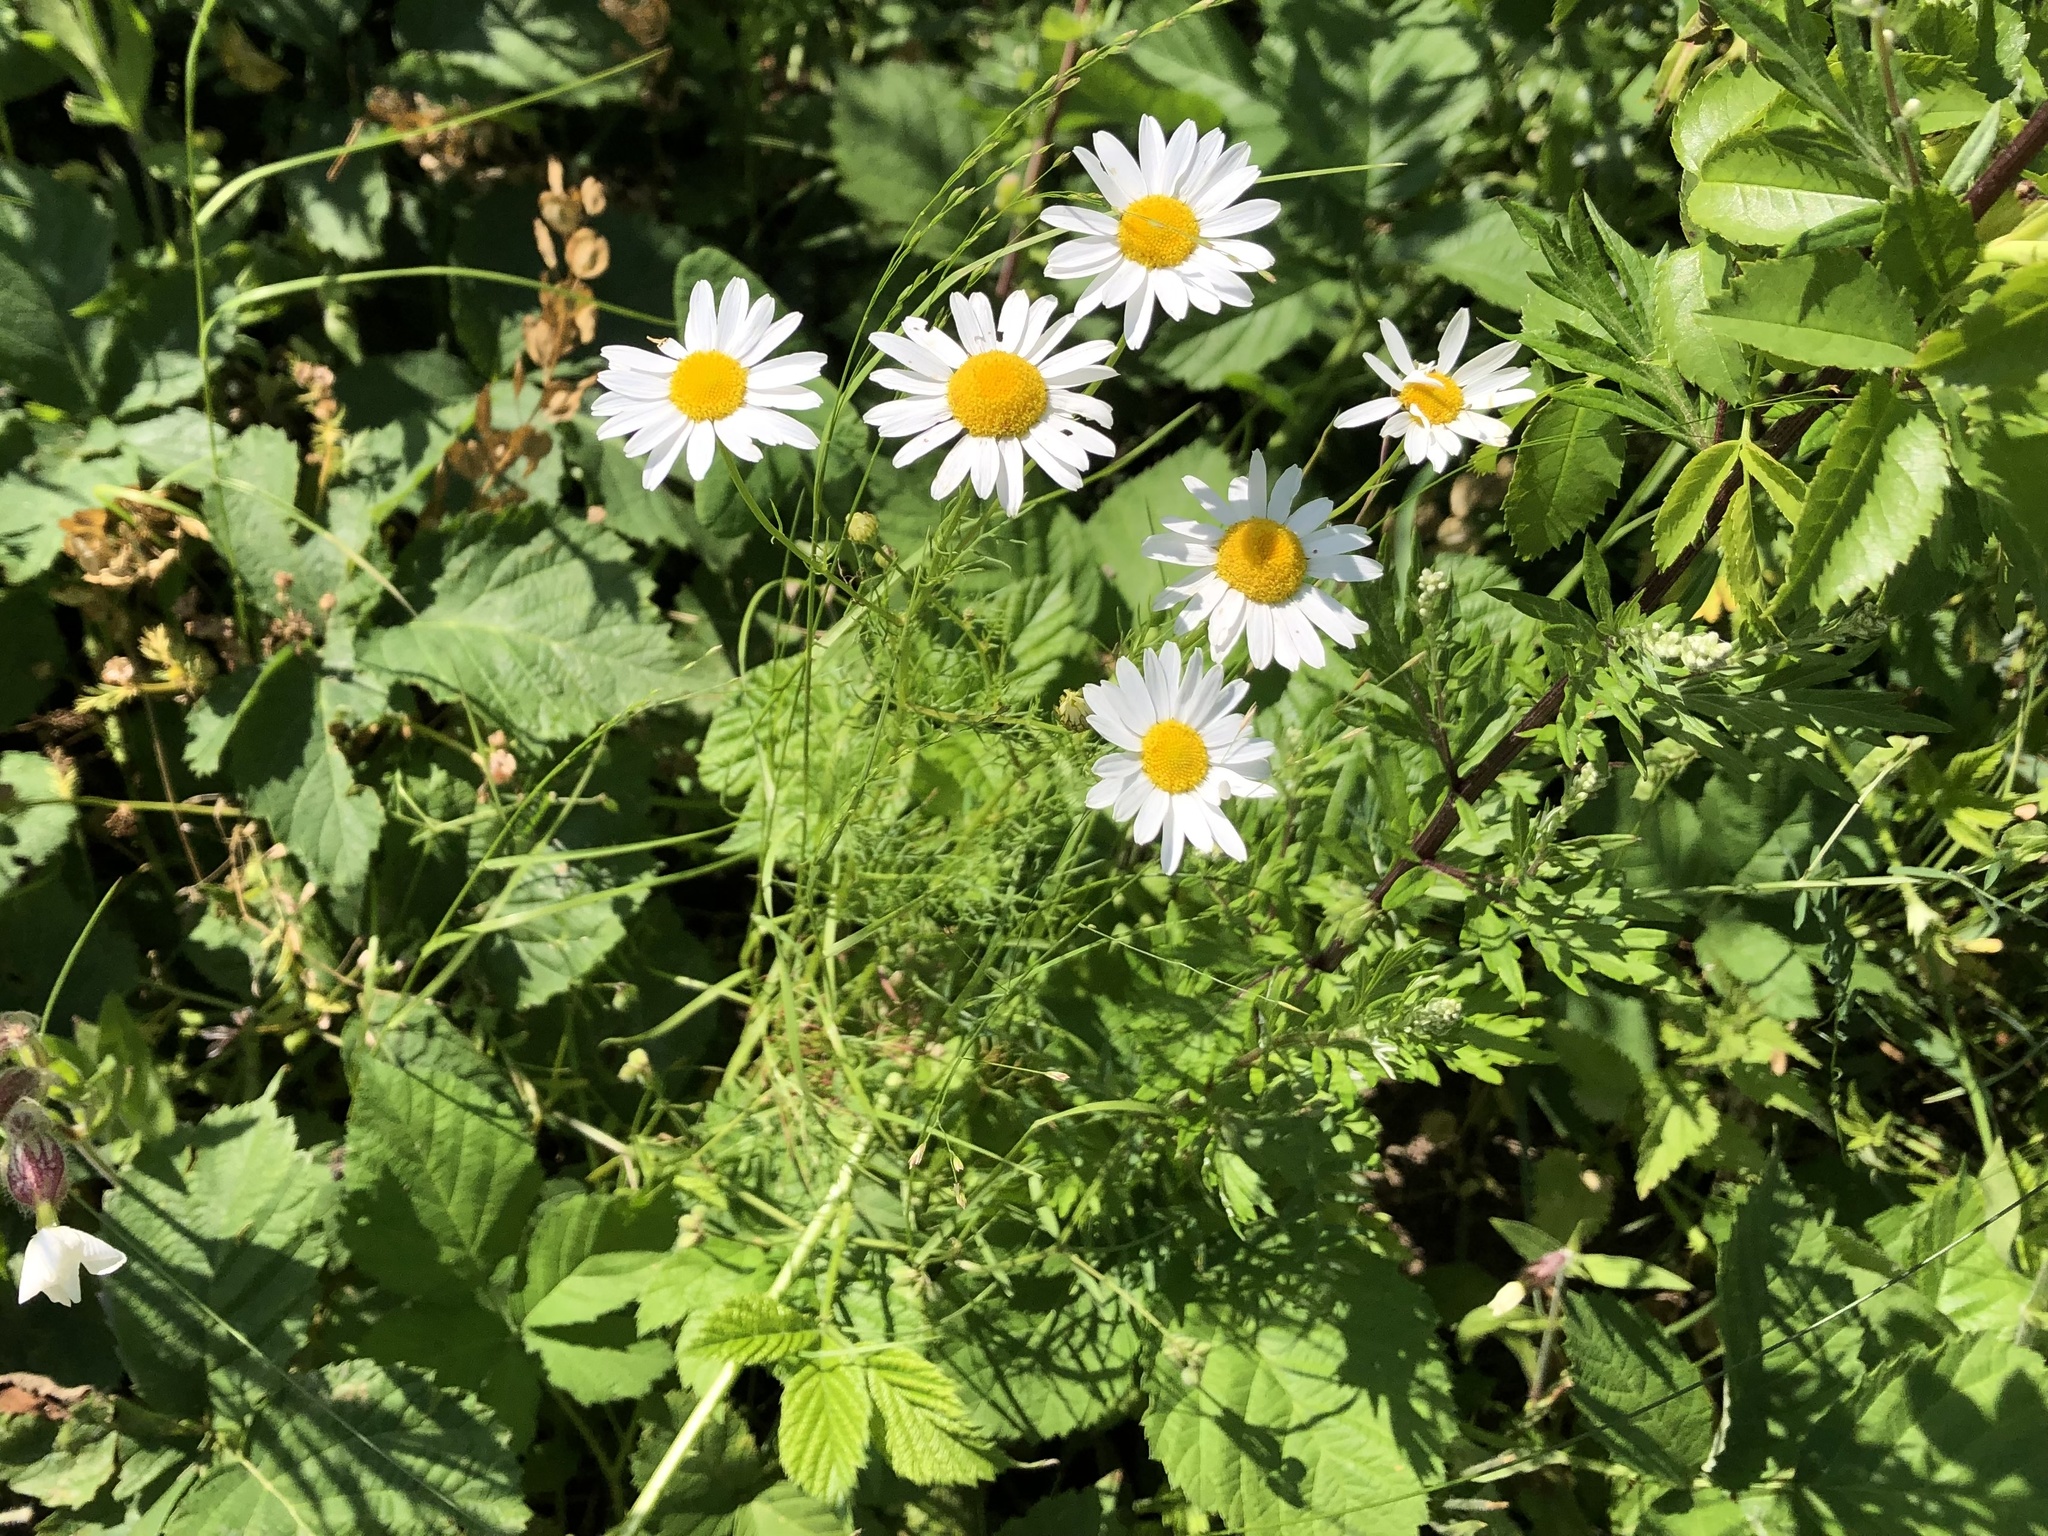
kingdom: Plantae
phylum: Tracheophyta
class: Magnoliopsida
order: Asterales
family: Asteraceae
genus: Tripleurospermum
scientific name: Tripleurospermum inodorum
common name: Scentless mayweed
